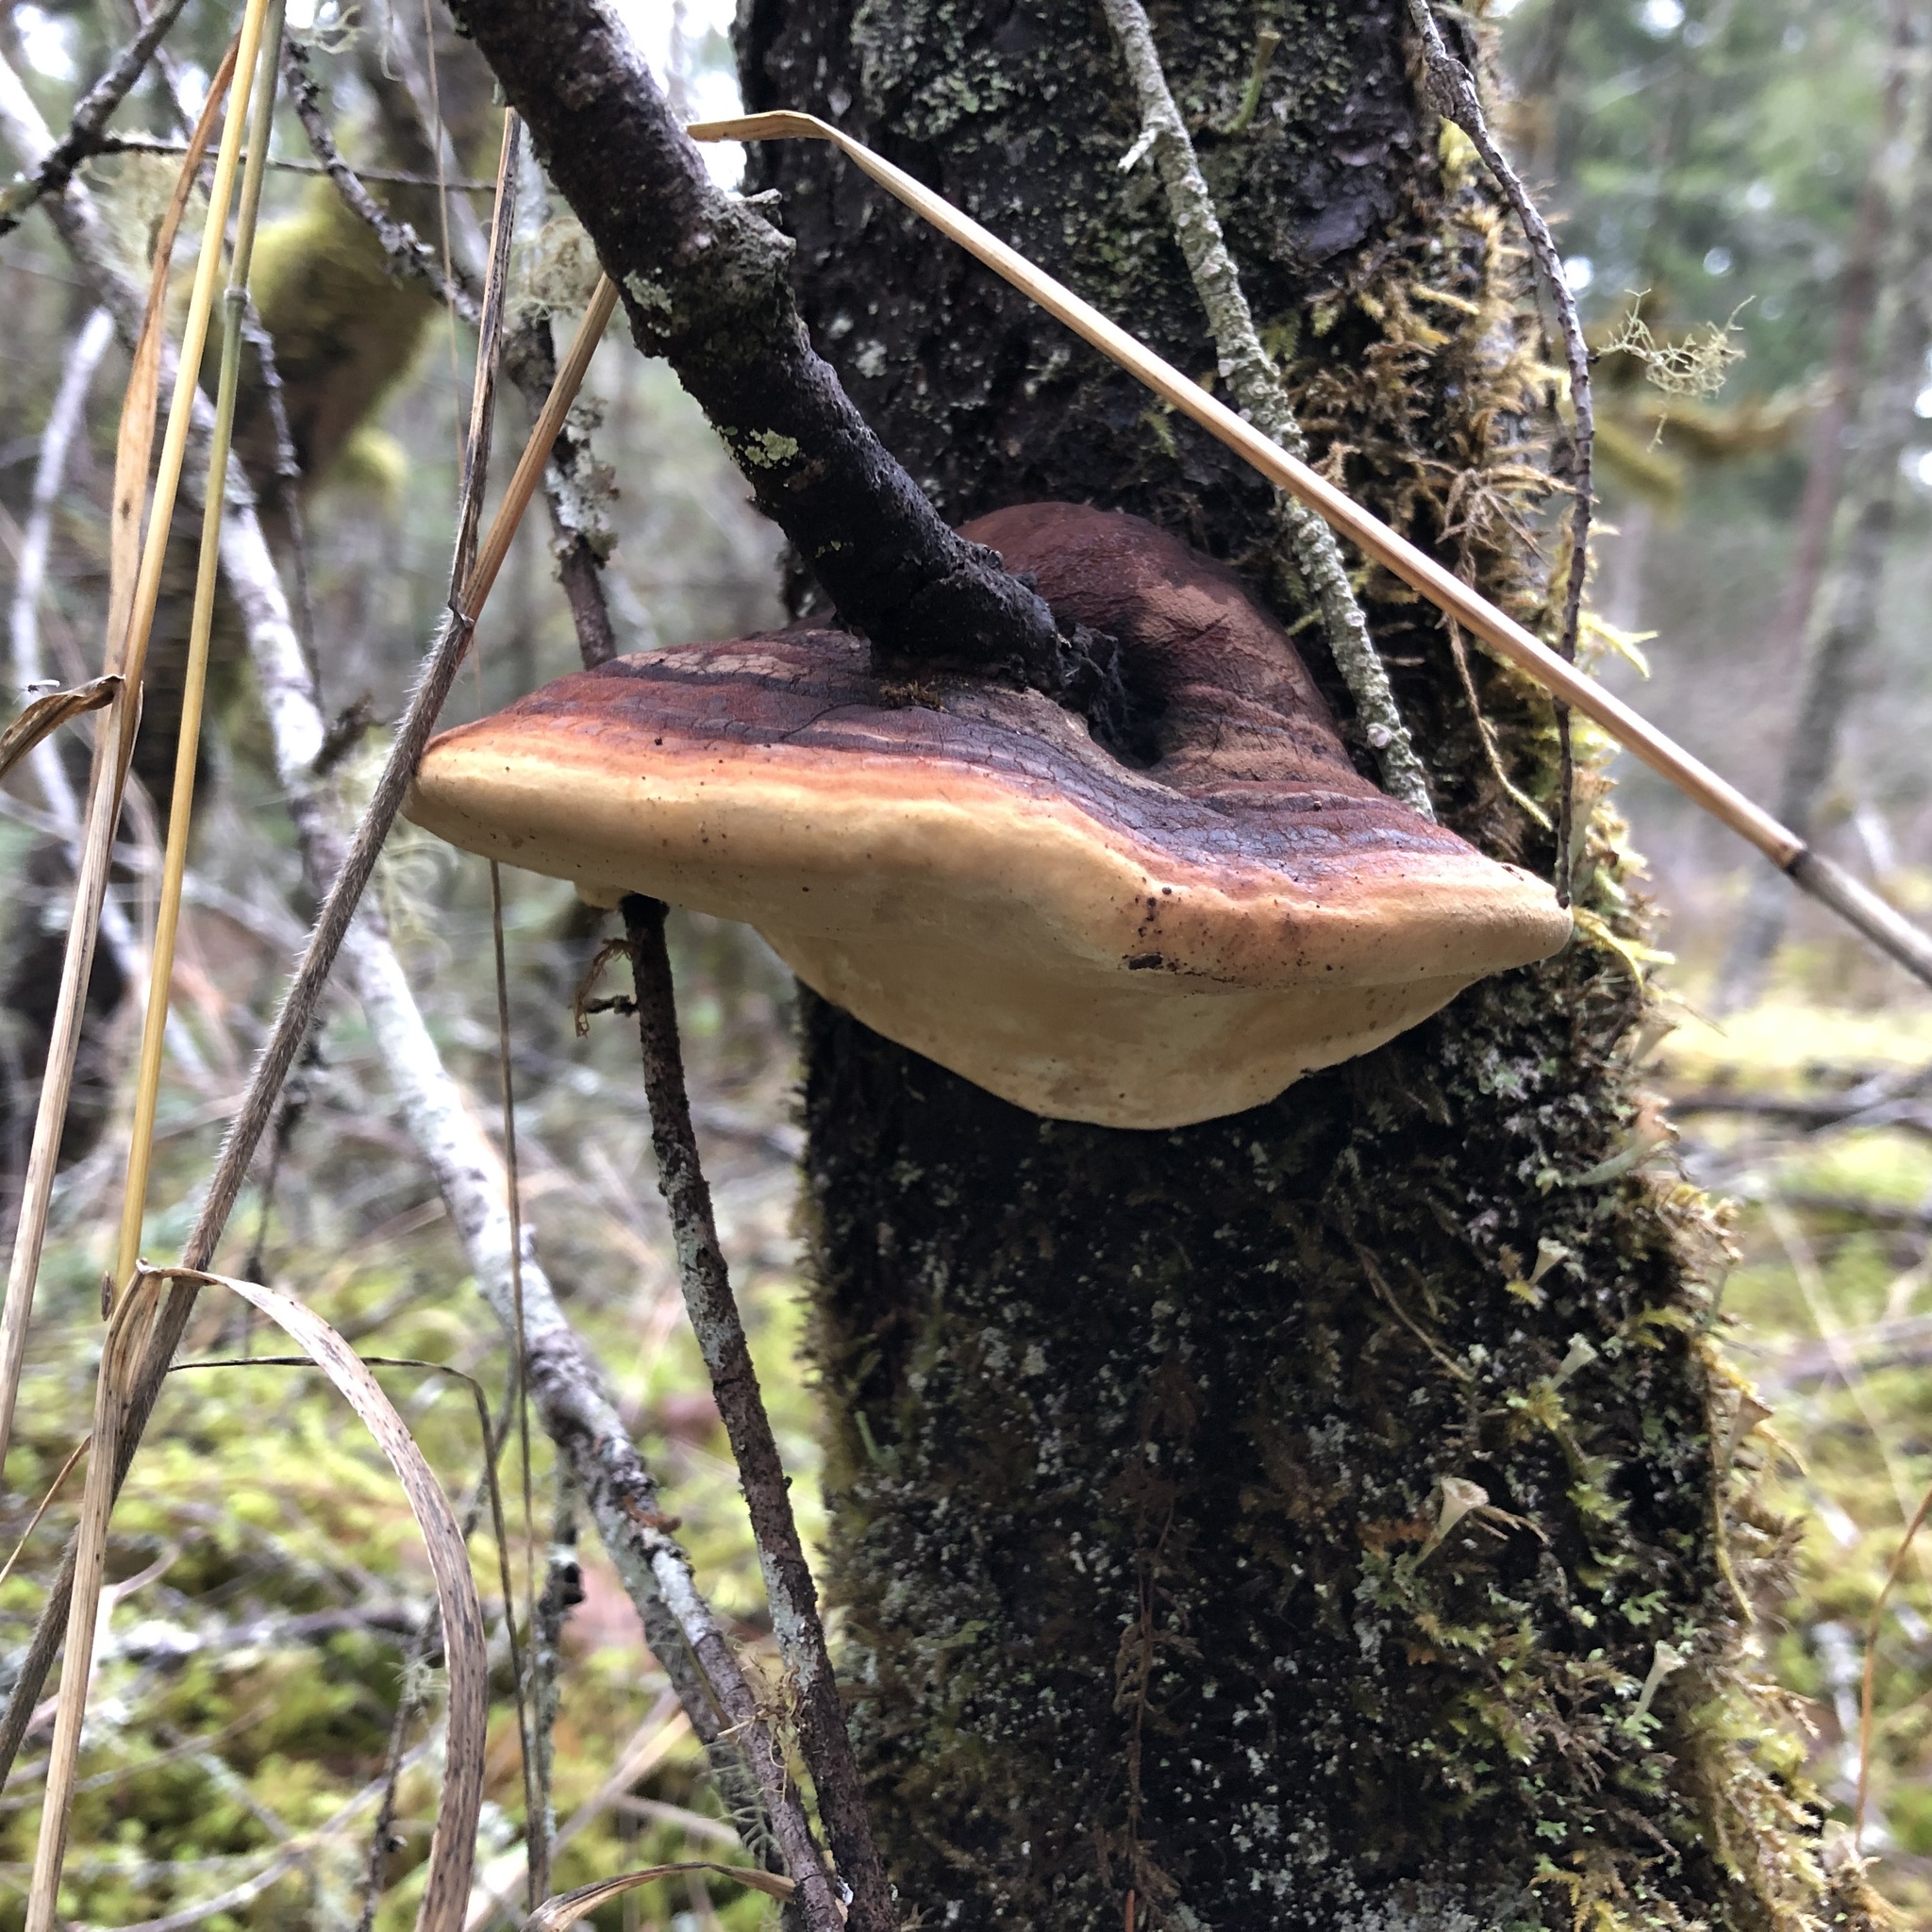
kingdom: Fungi
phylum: Basidiomycota
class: Agaricomycetes
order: Polyporales
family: Fomitopsidaceae
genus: Fomitopsis
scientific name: Fomitopsis mounceae
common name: Northern red belt
